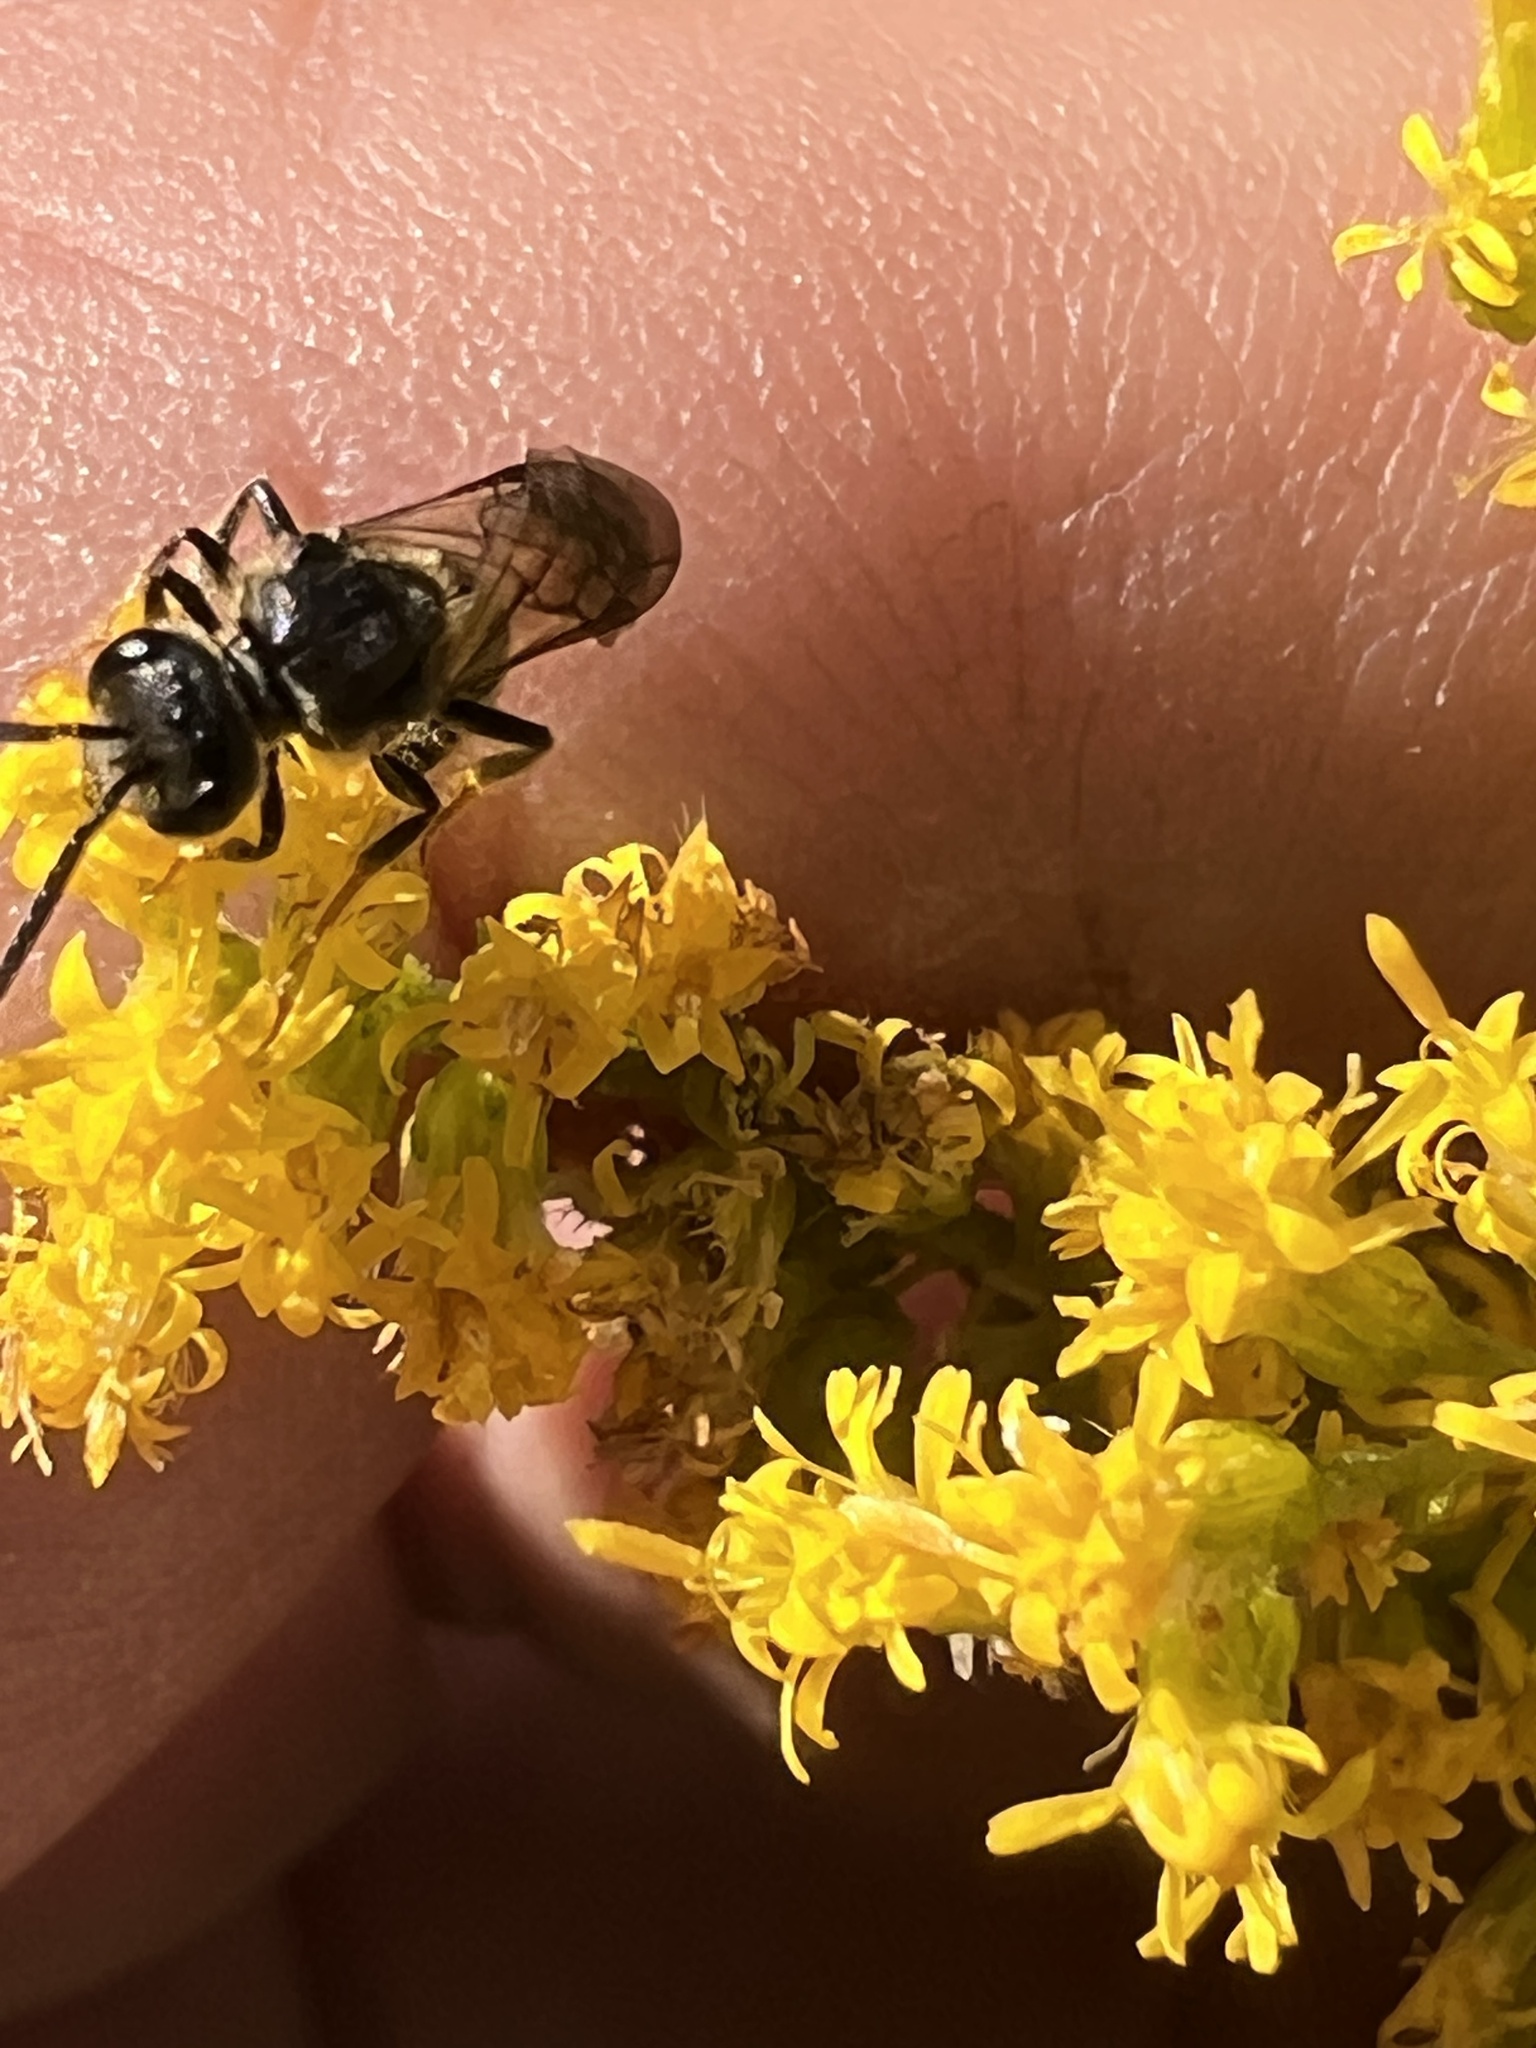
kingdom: Animalia
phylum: Arthropoda
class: Insecta
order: Hymenoptera
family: Halictidae
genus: Lasioglossum
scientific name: Lasioglossum fuscipenne
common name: Brown-winged sweat bee
